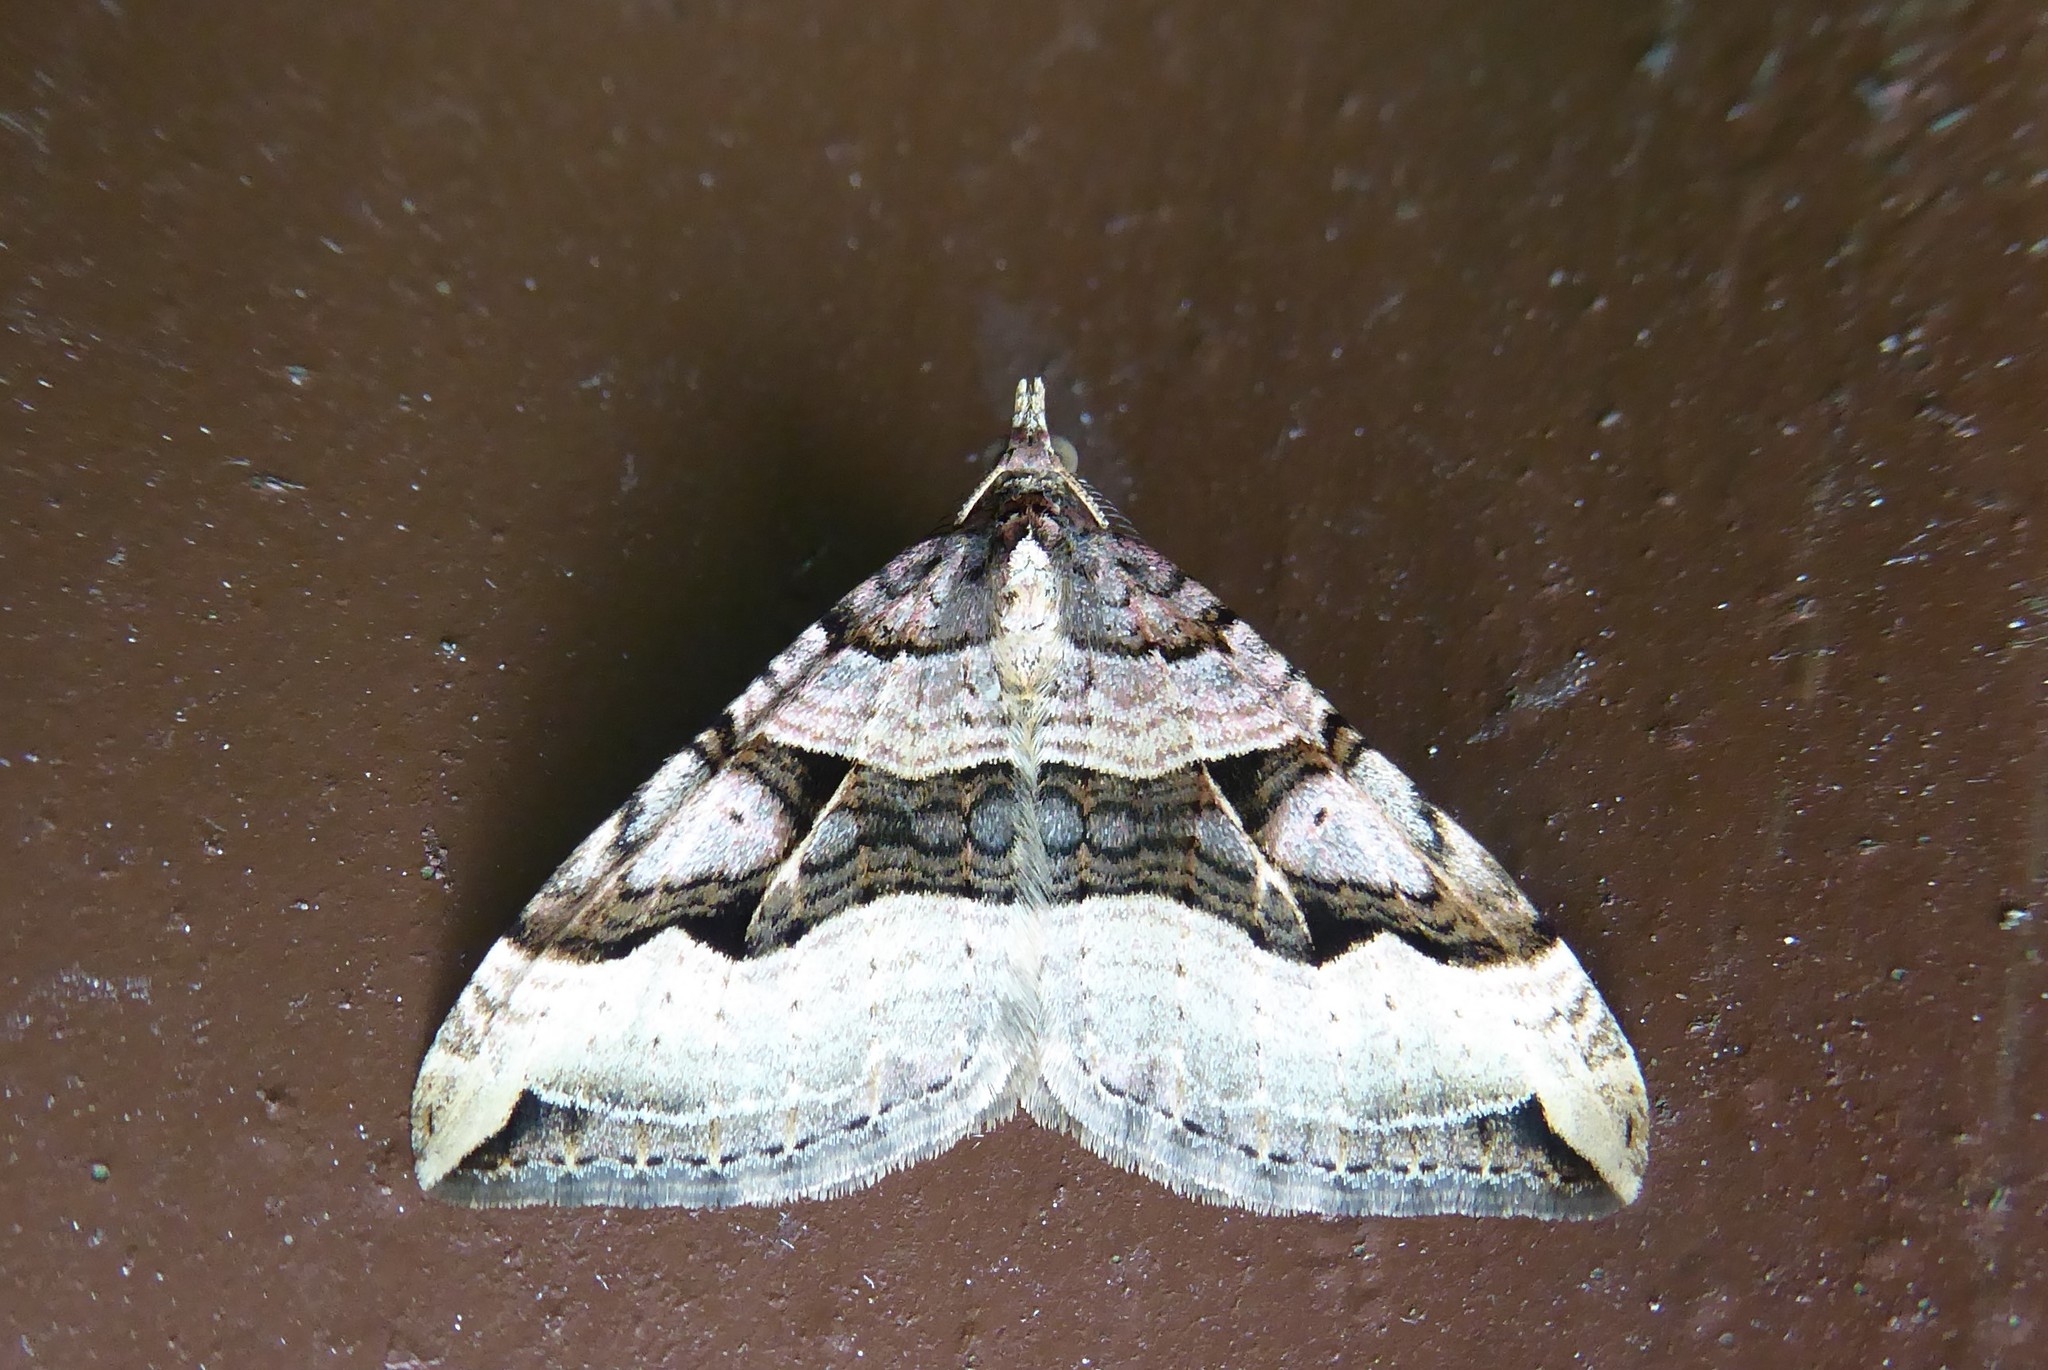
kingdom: Animalia
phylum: Arthropoda
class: Insecta
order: Lepidoptera
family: Geometridae
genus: Xanthorhoe
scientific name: Xanthorhoe semifissata
